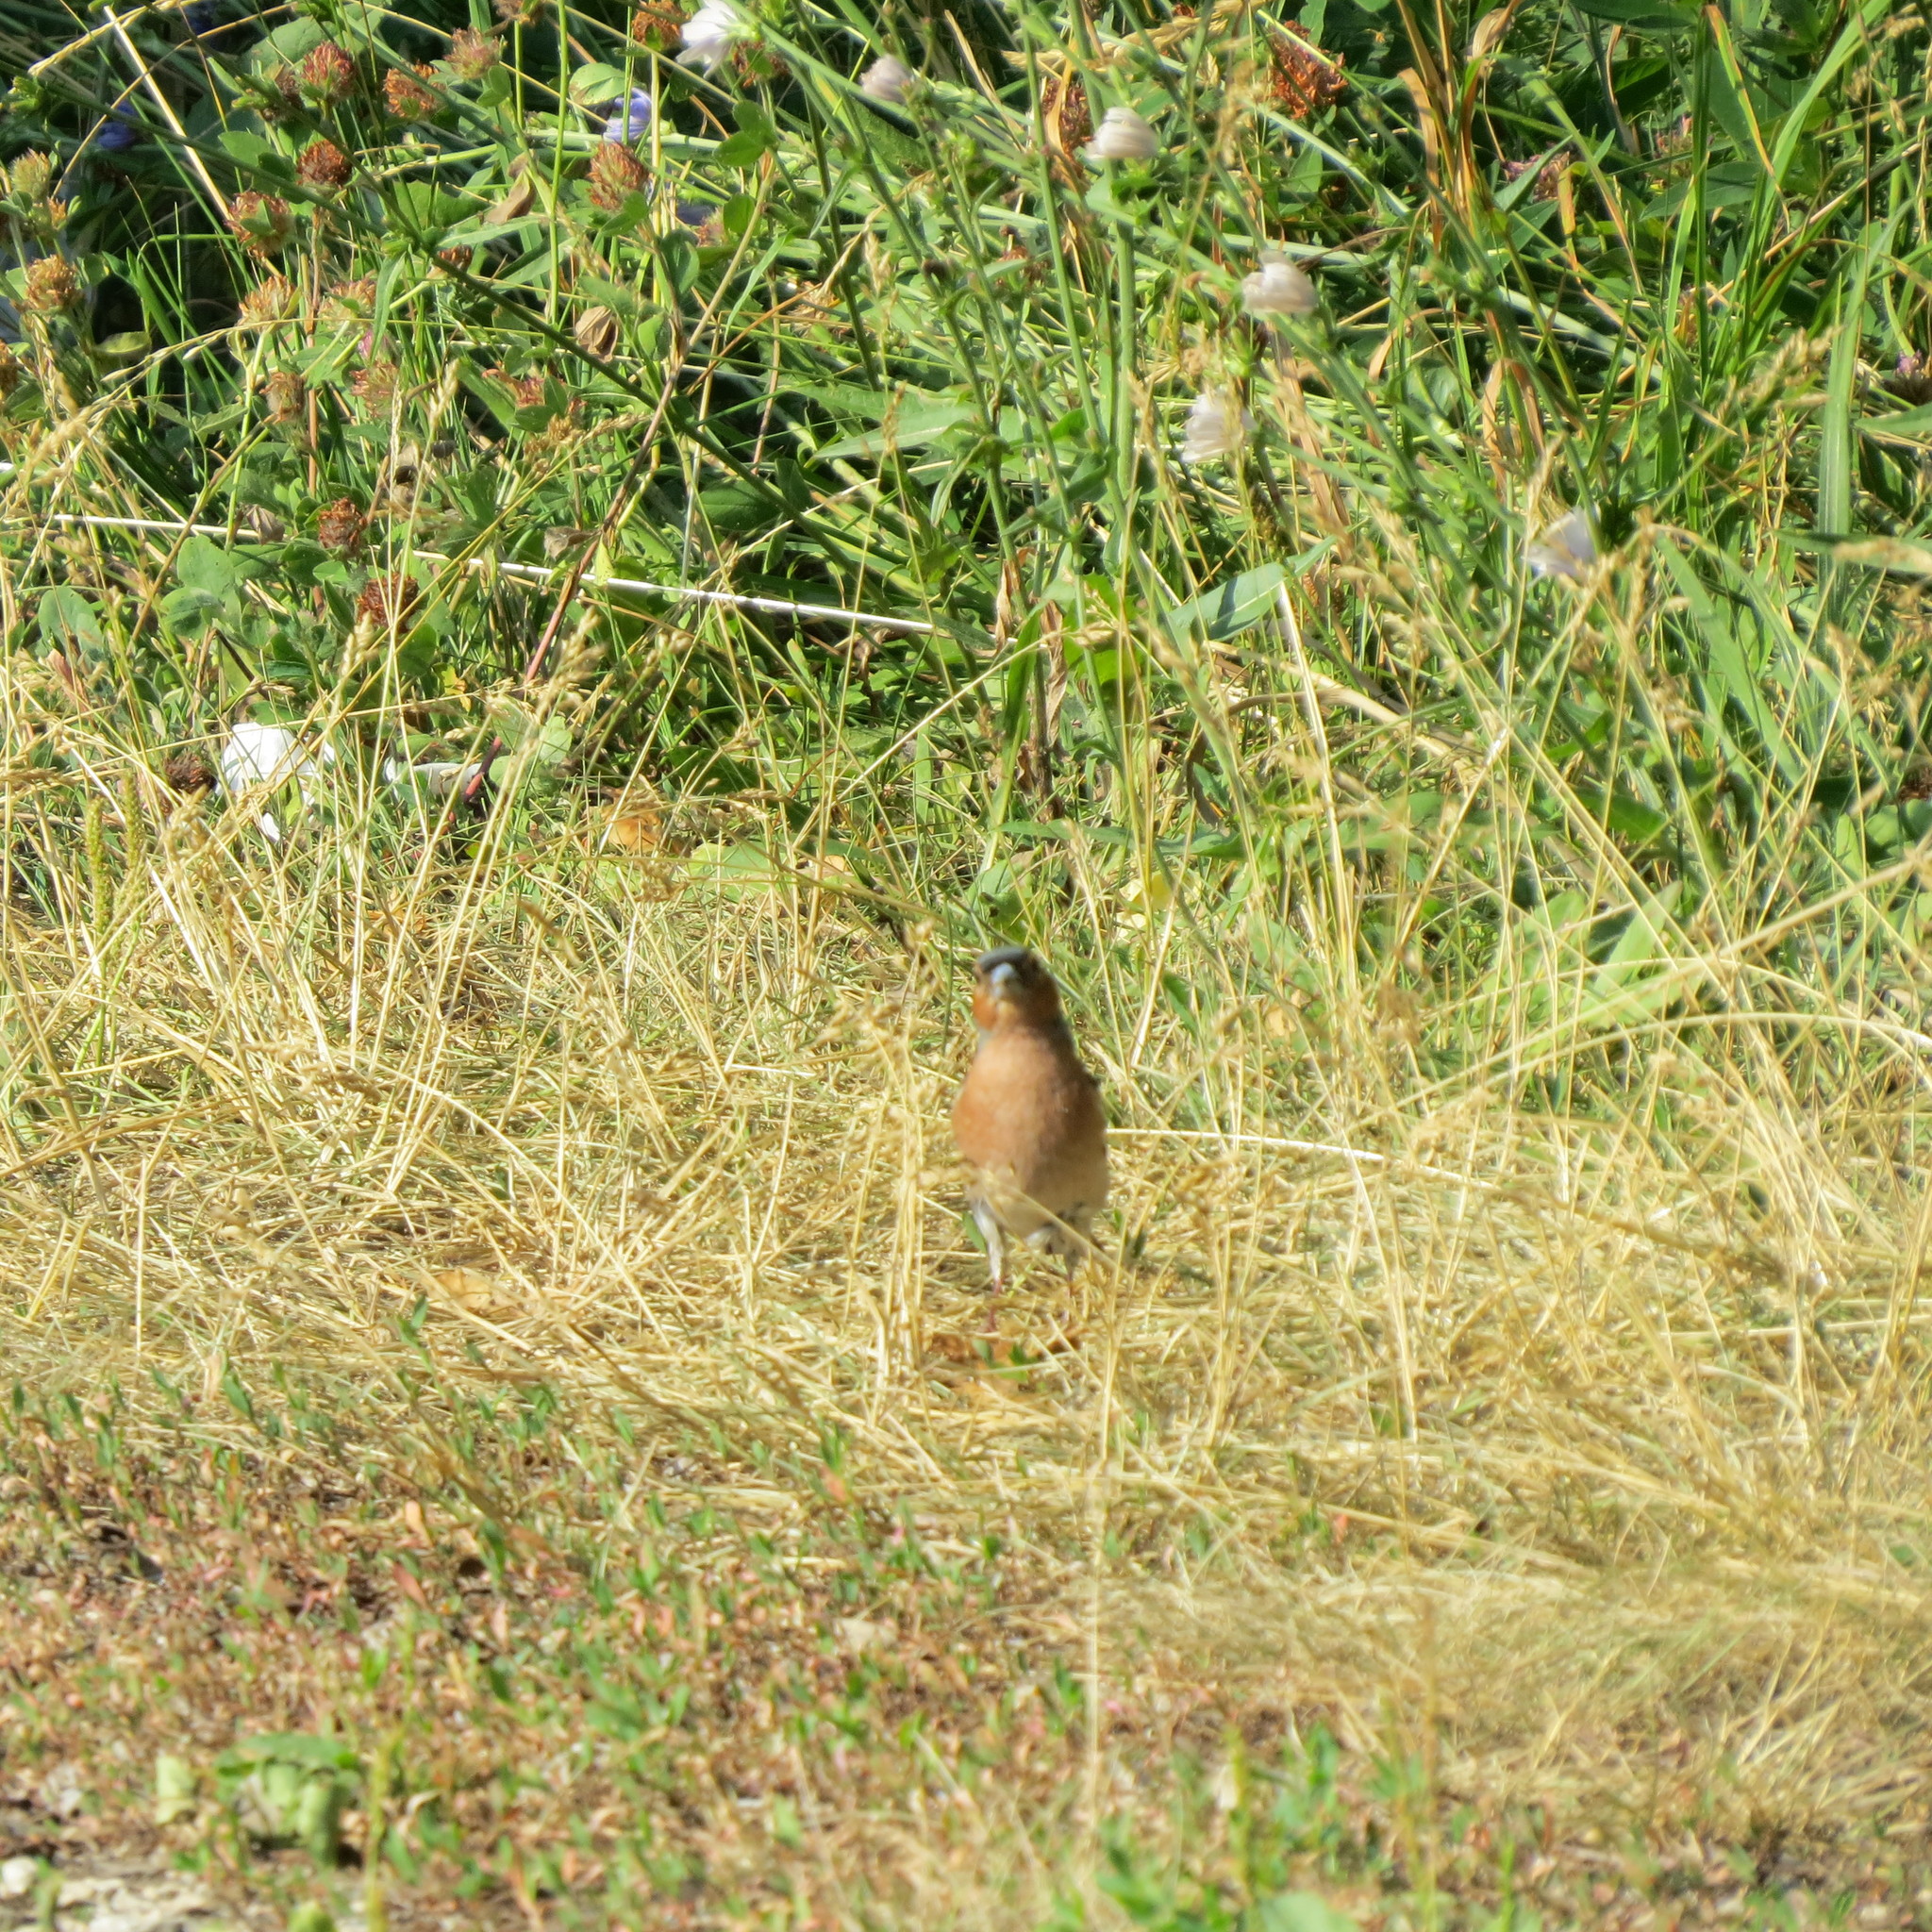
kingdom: Animalia
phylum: Chordata
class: Aves
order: Passeriformes
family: Fringillidae
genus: Fringilla
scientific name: Fringilla coelebs
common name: Common chaffinch
